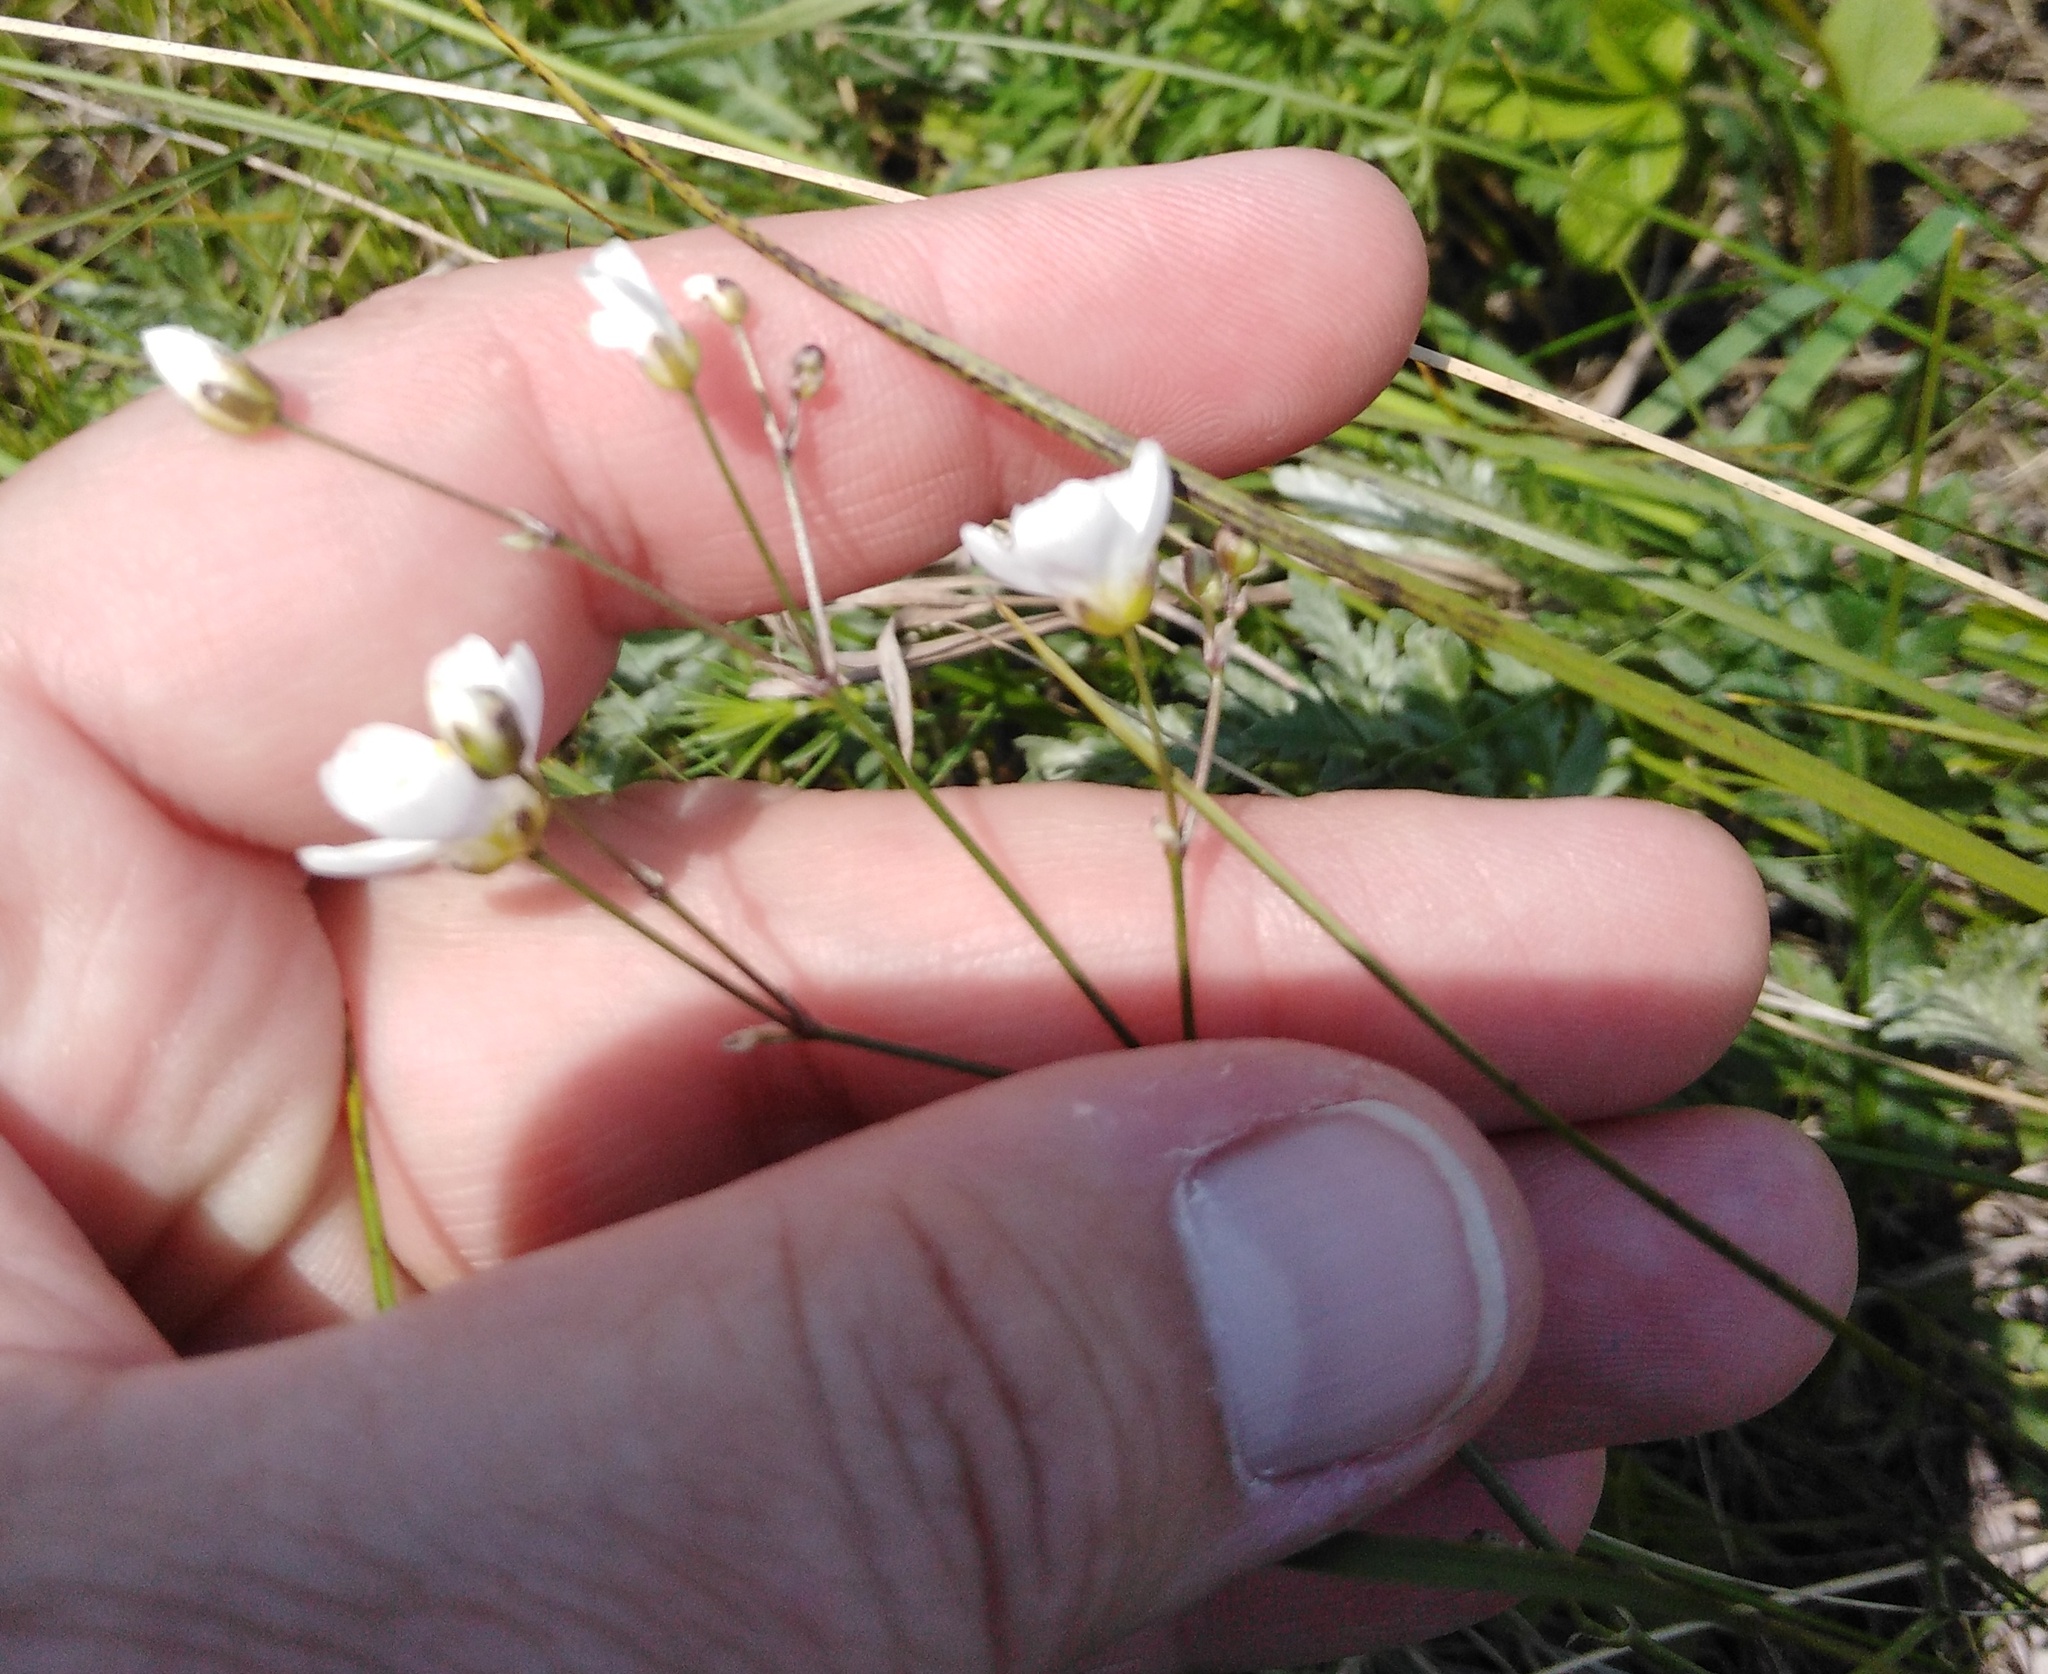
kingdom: Plantae
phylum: Tracheophyta
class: Magnoliopsida
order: Caryophyllales
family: Caryophyllaceae
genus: Eremogone
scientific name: Eremogone saxatilis
